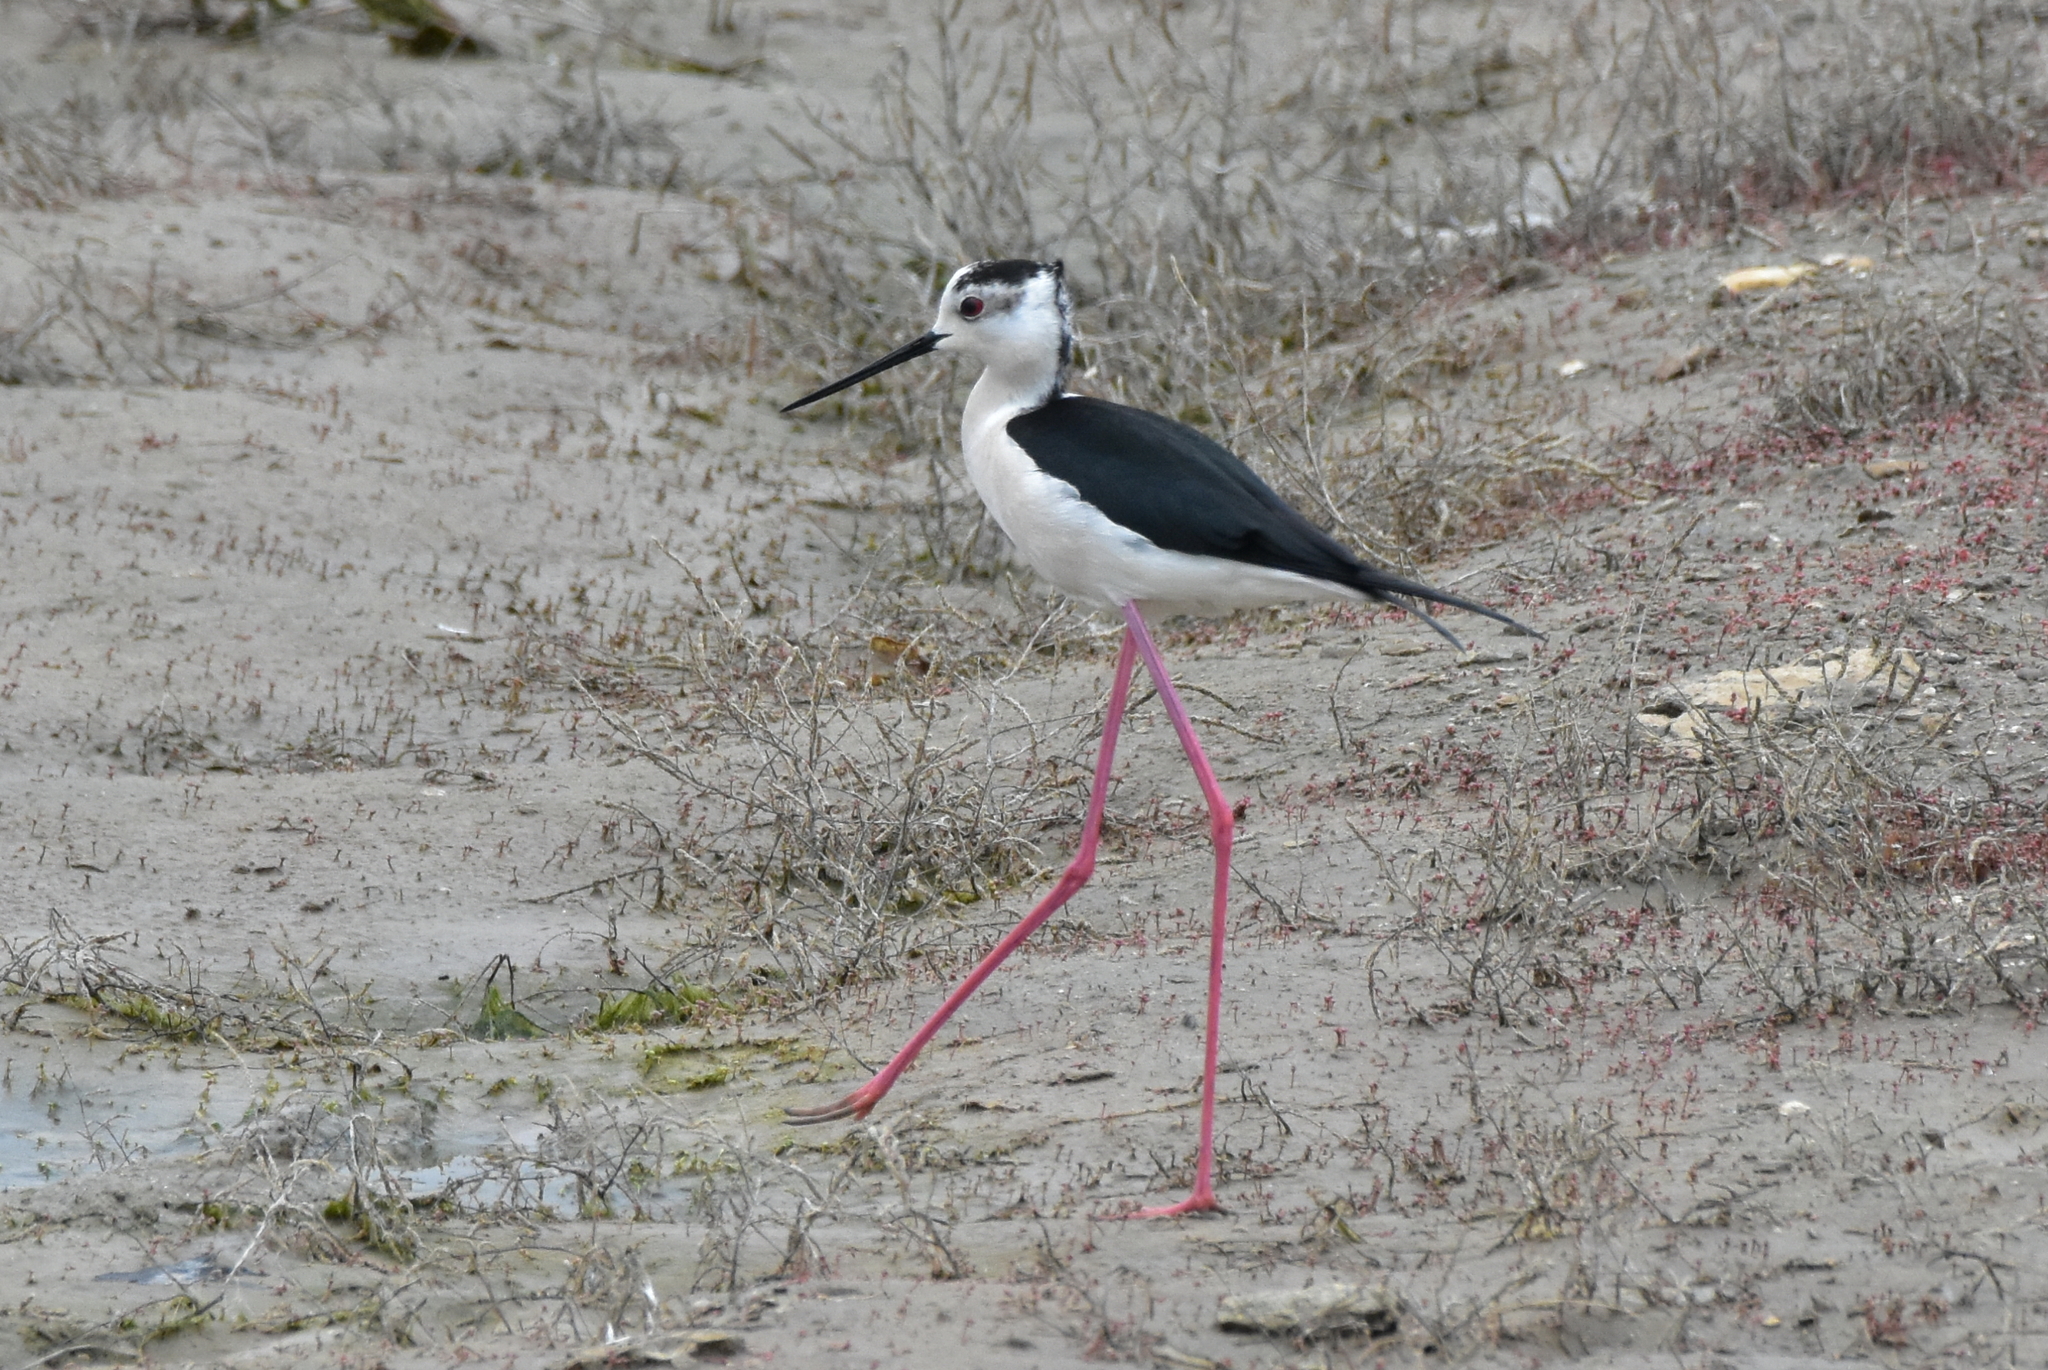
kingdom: Animalia
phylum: Chordata
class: Aves
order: Charadriiformes
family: Recurvirostridae
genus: Himantopus
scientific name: Himantopus himantopus
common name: Black-winged stilt
